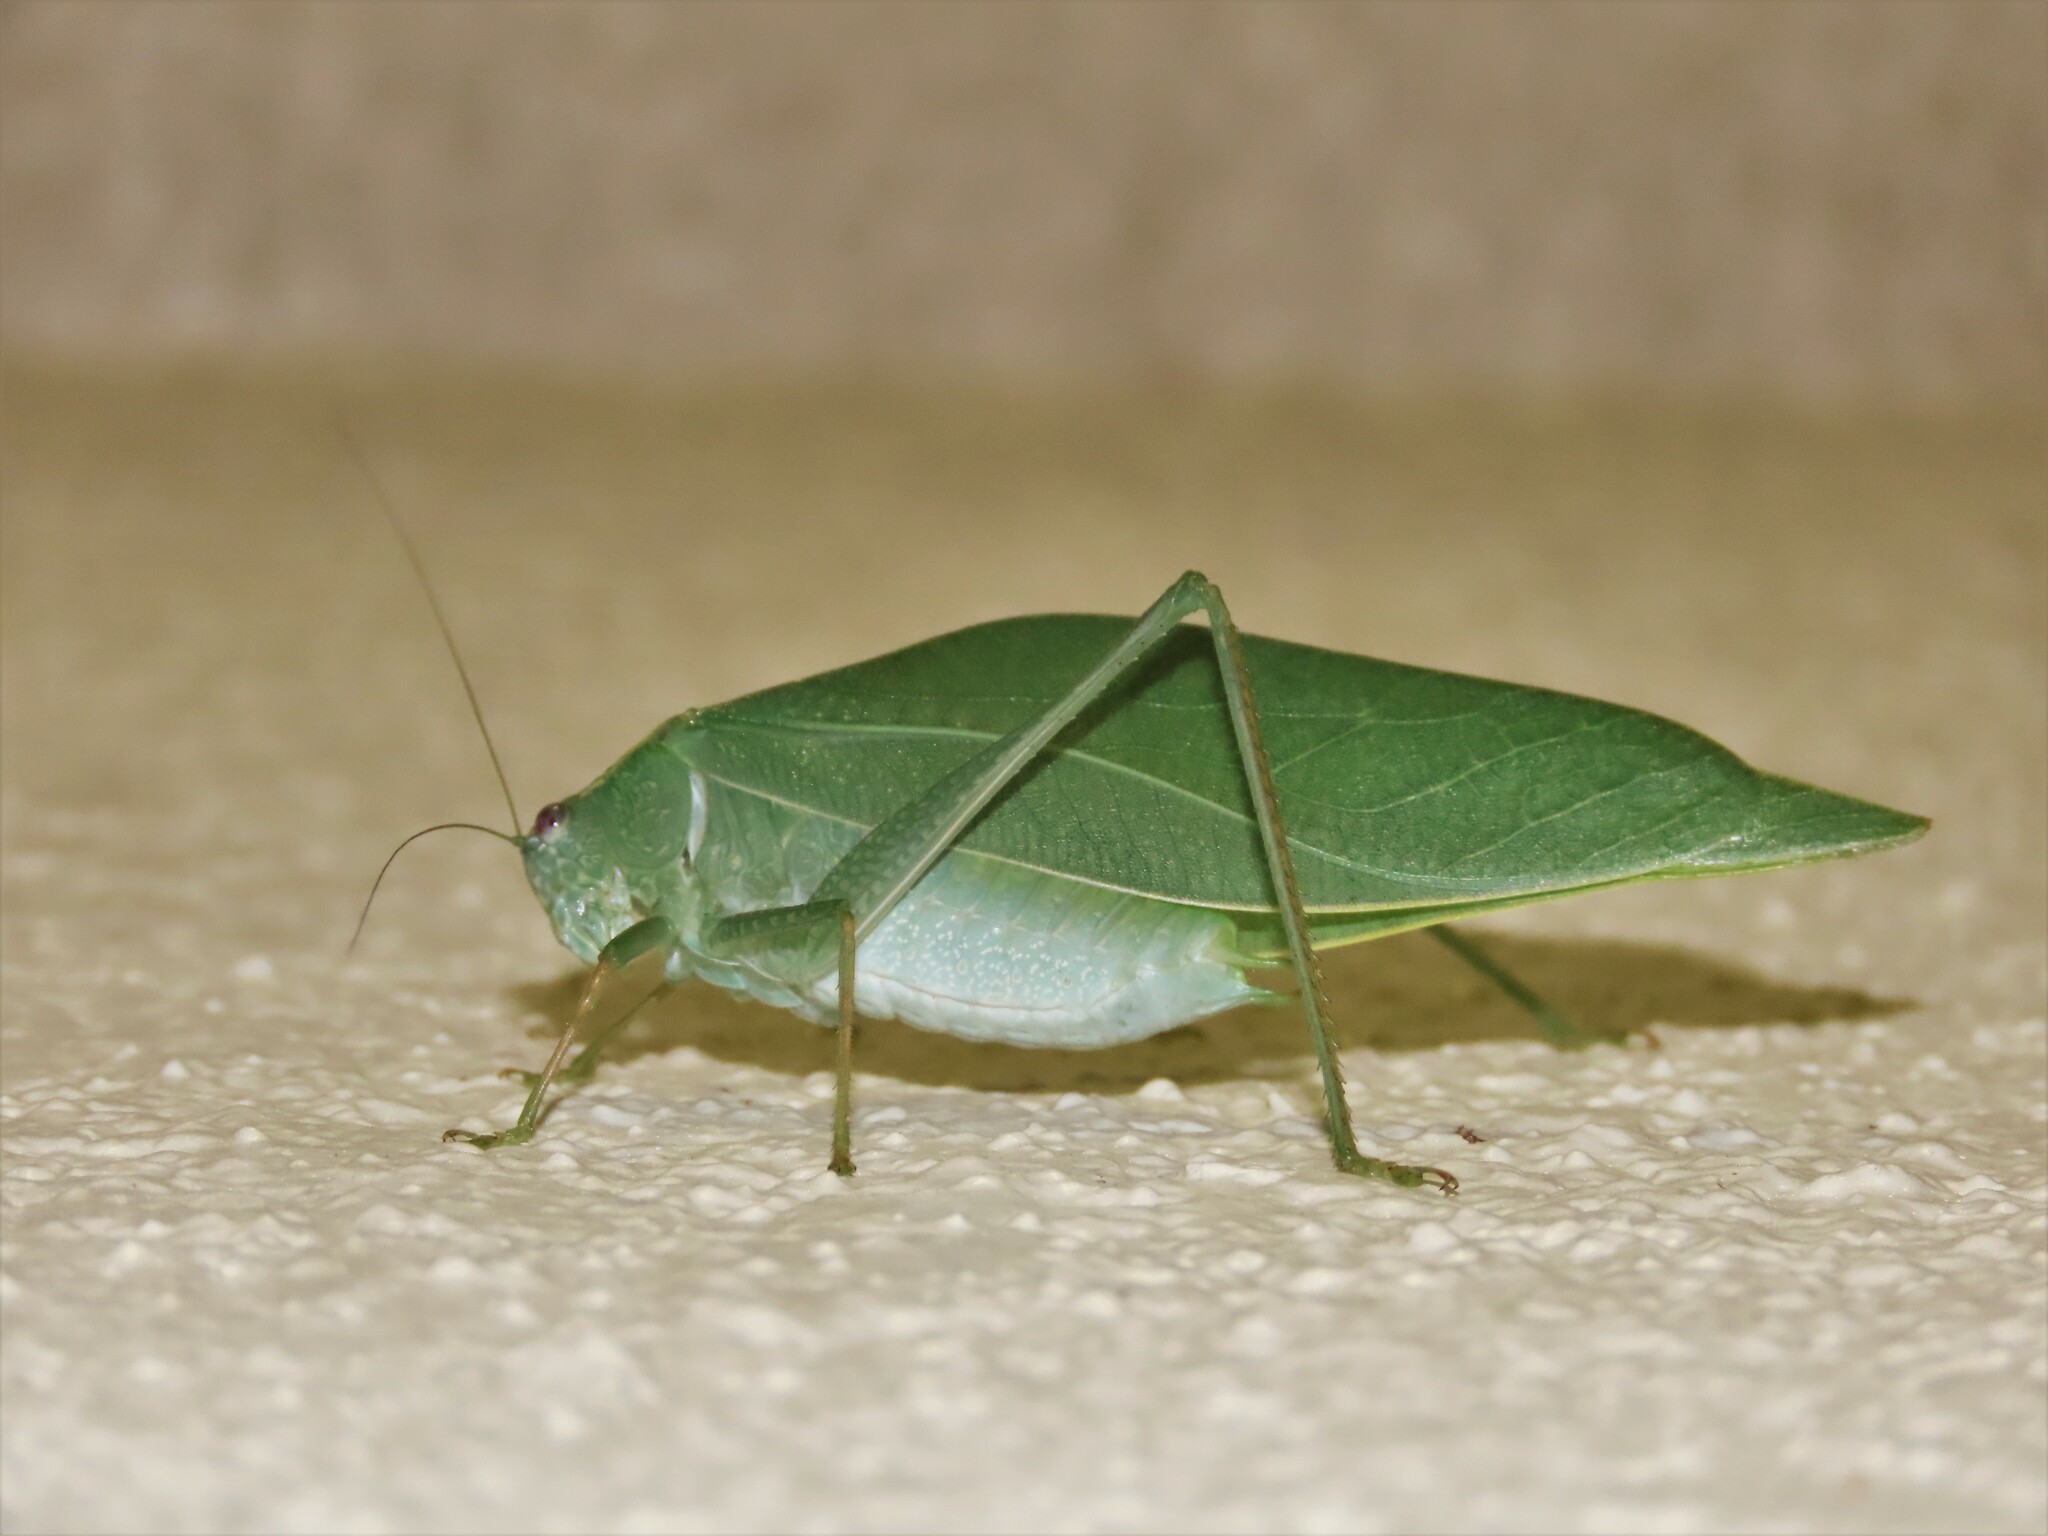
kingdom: Animalia
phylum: Arthropoda
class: Insecta
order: Orthoptera
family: Tettigoniidae
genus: Microcentrum
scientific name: Microcentrum rhombifolium
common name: Broad-winged katydid
